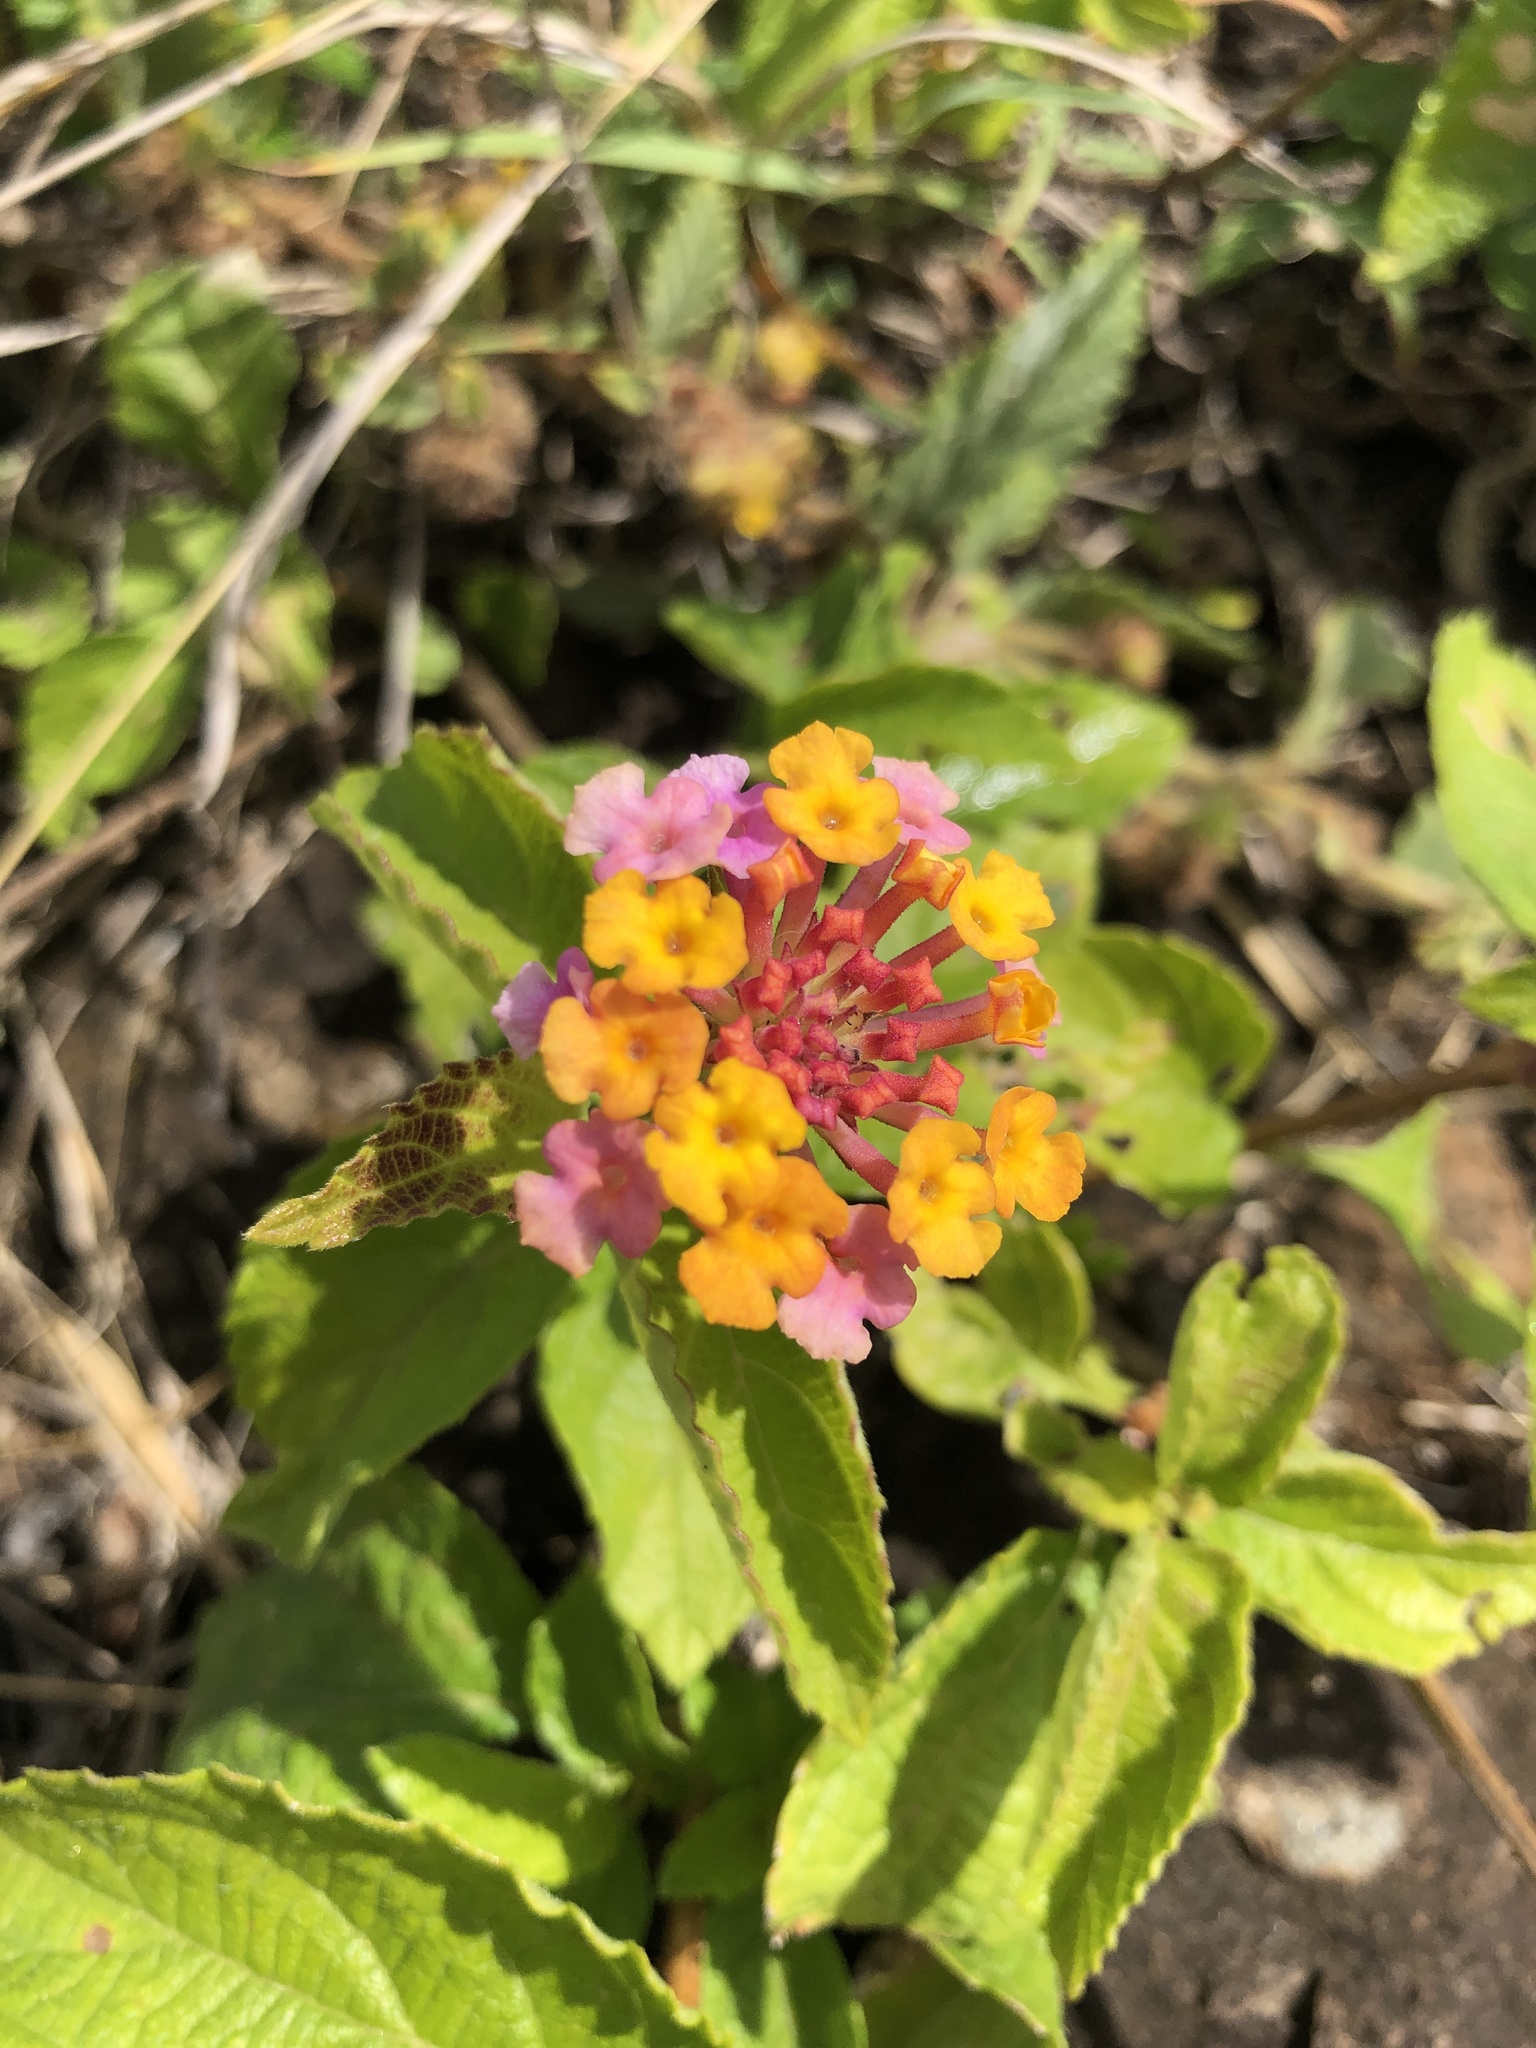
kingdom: Plantae
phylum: Tracheophyta
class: Magnoliopsida
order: Lamiales
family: Verbenaceae
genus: Lantana
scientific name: Lantana camara
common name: Lantana
